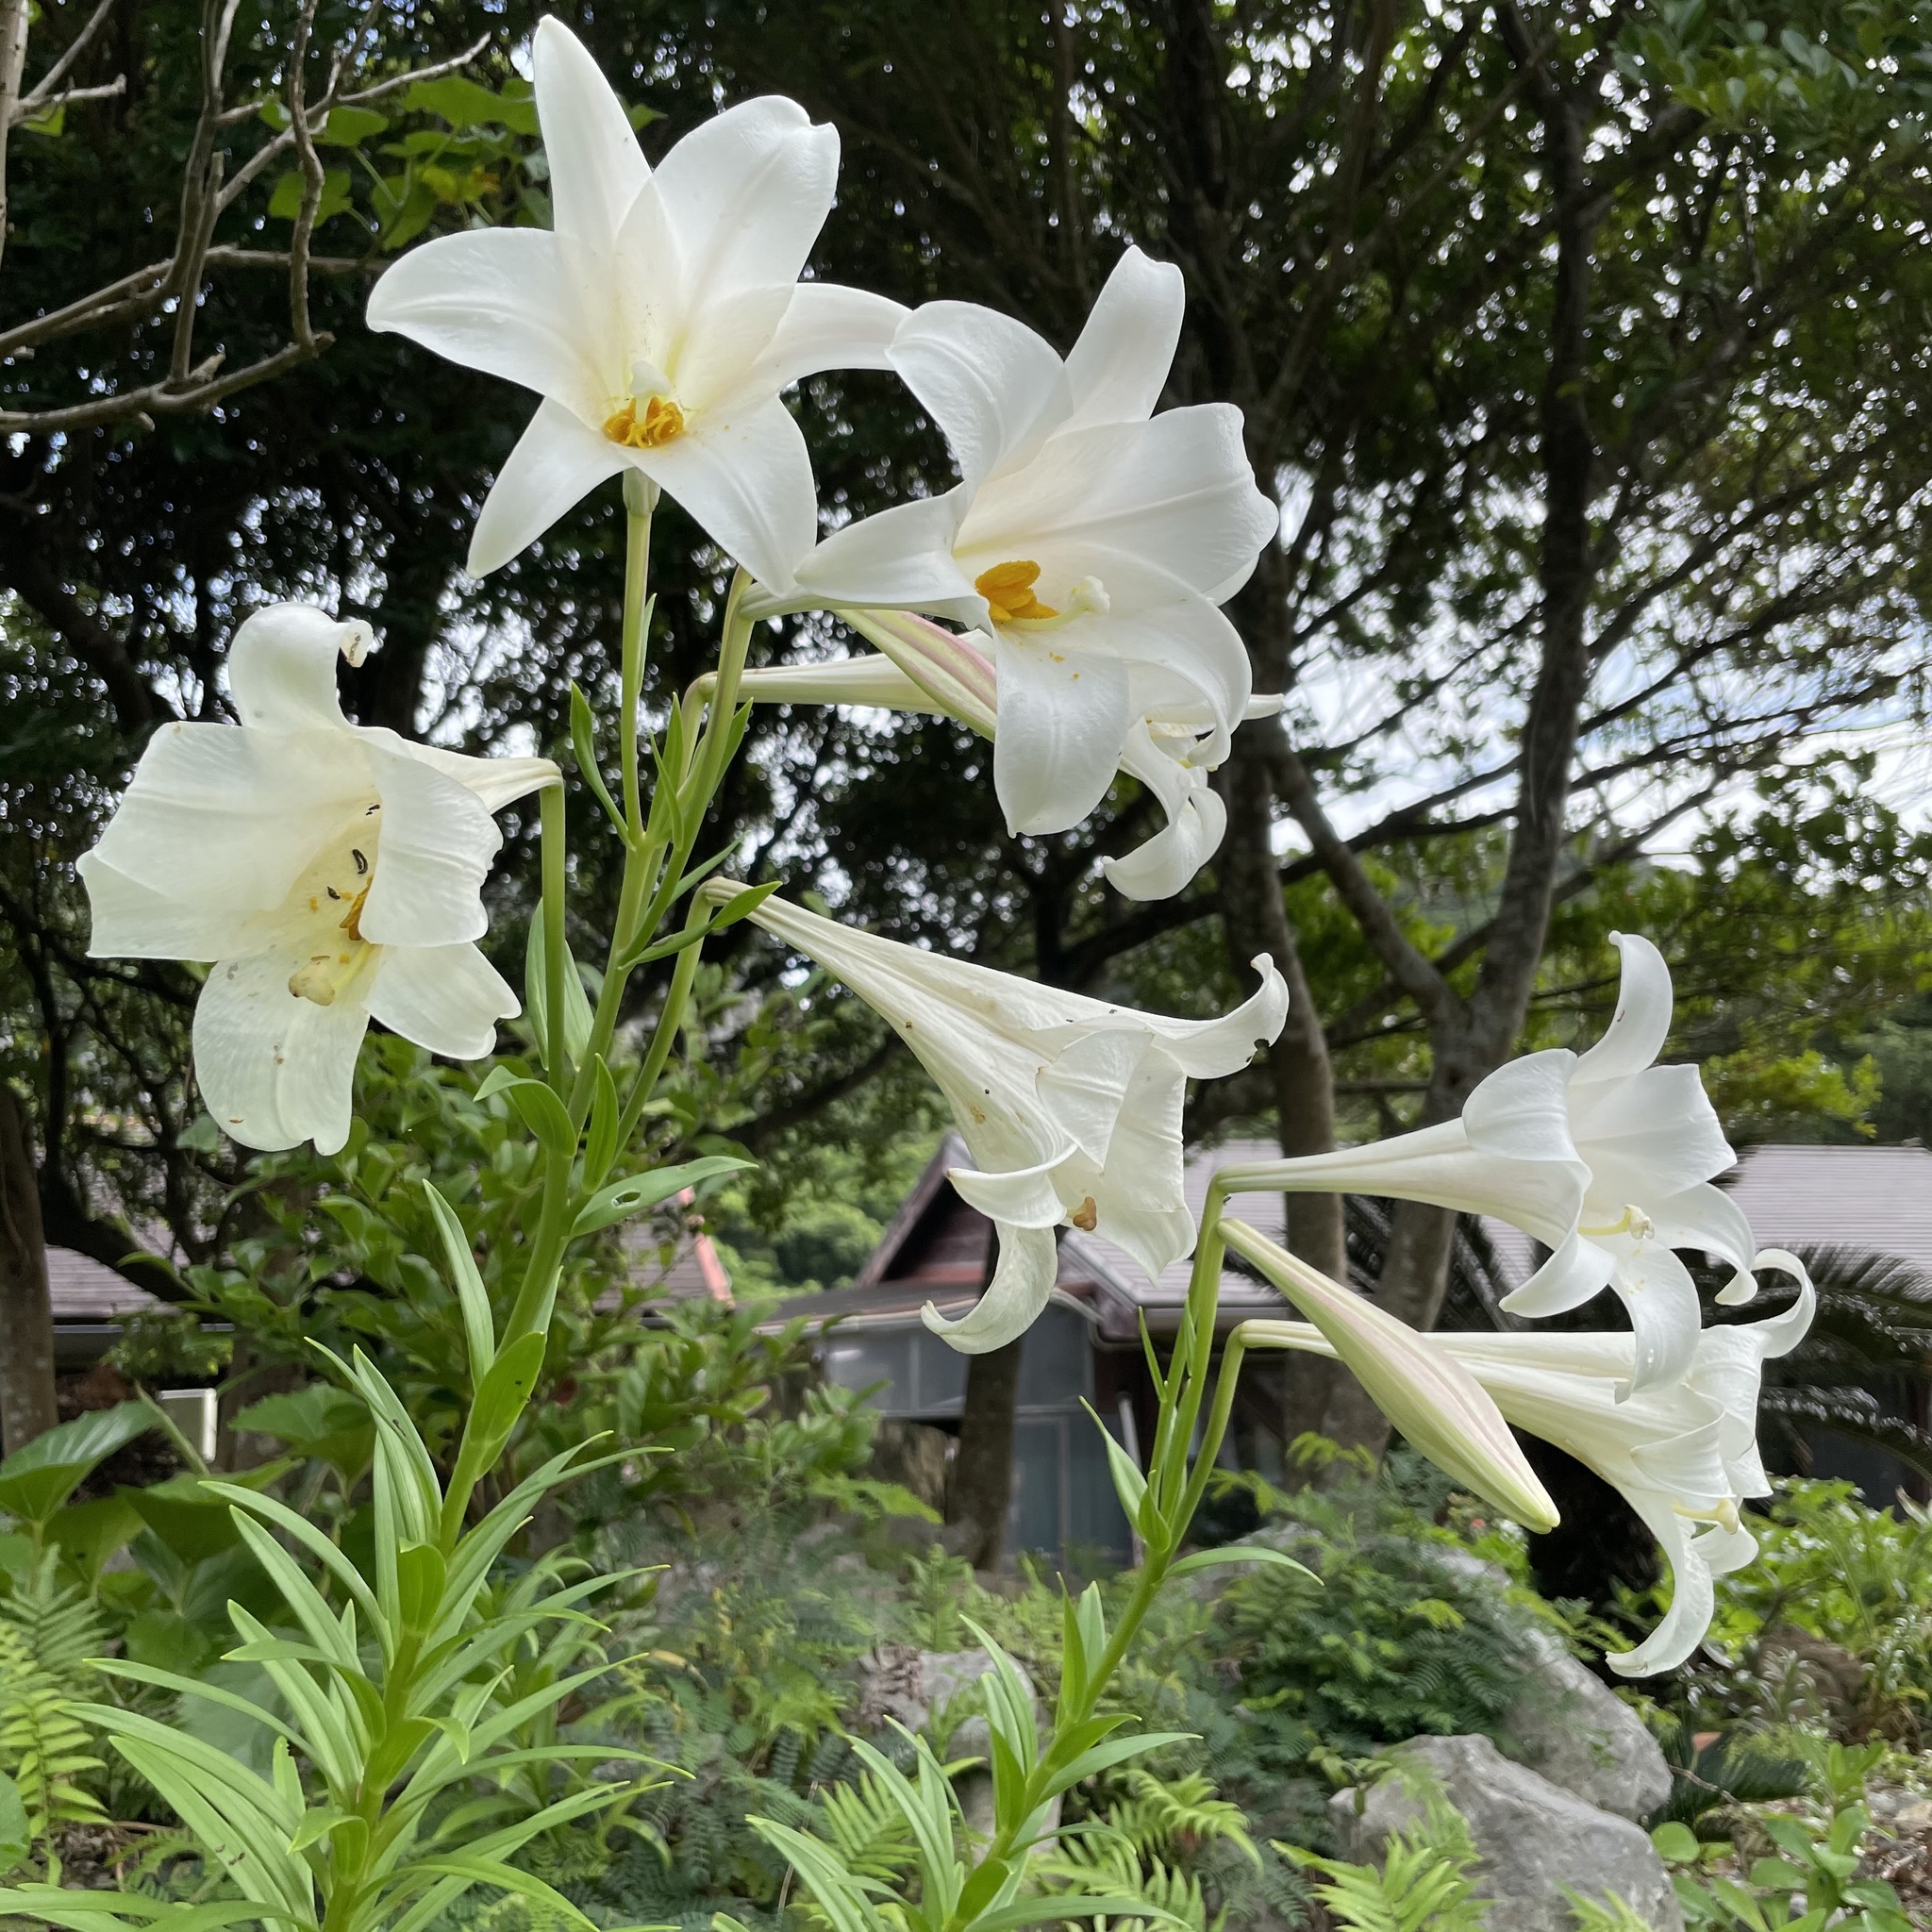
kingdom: Plantae
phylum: Tracheophyta
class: Liliopsida
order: Liliales
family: Liliaceae
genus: Lilium
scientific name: Lilium longiflorum
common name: Easter lily
